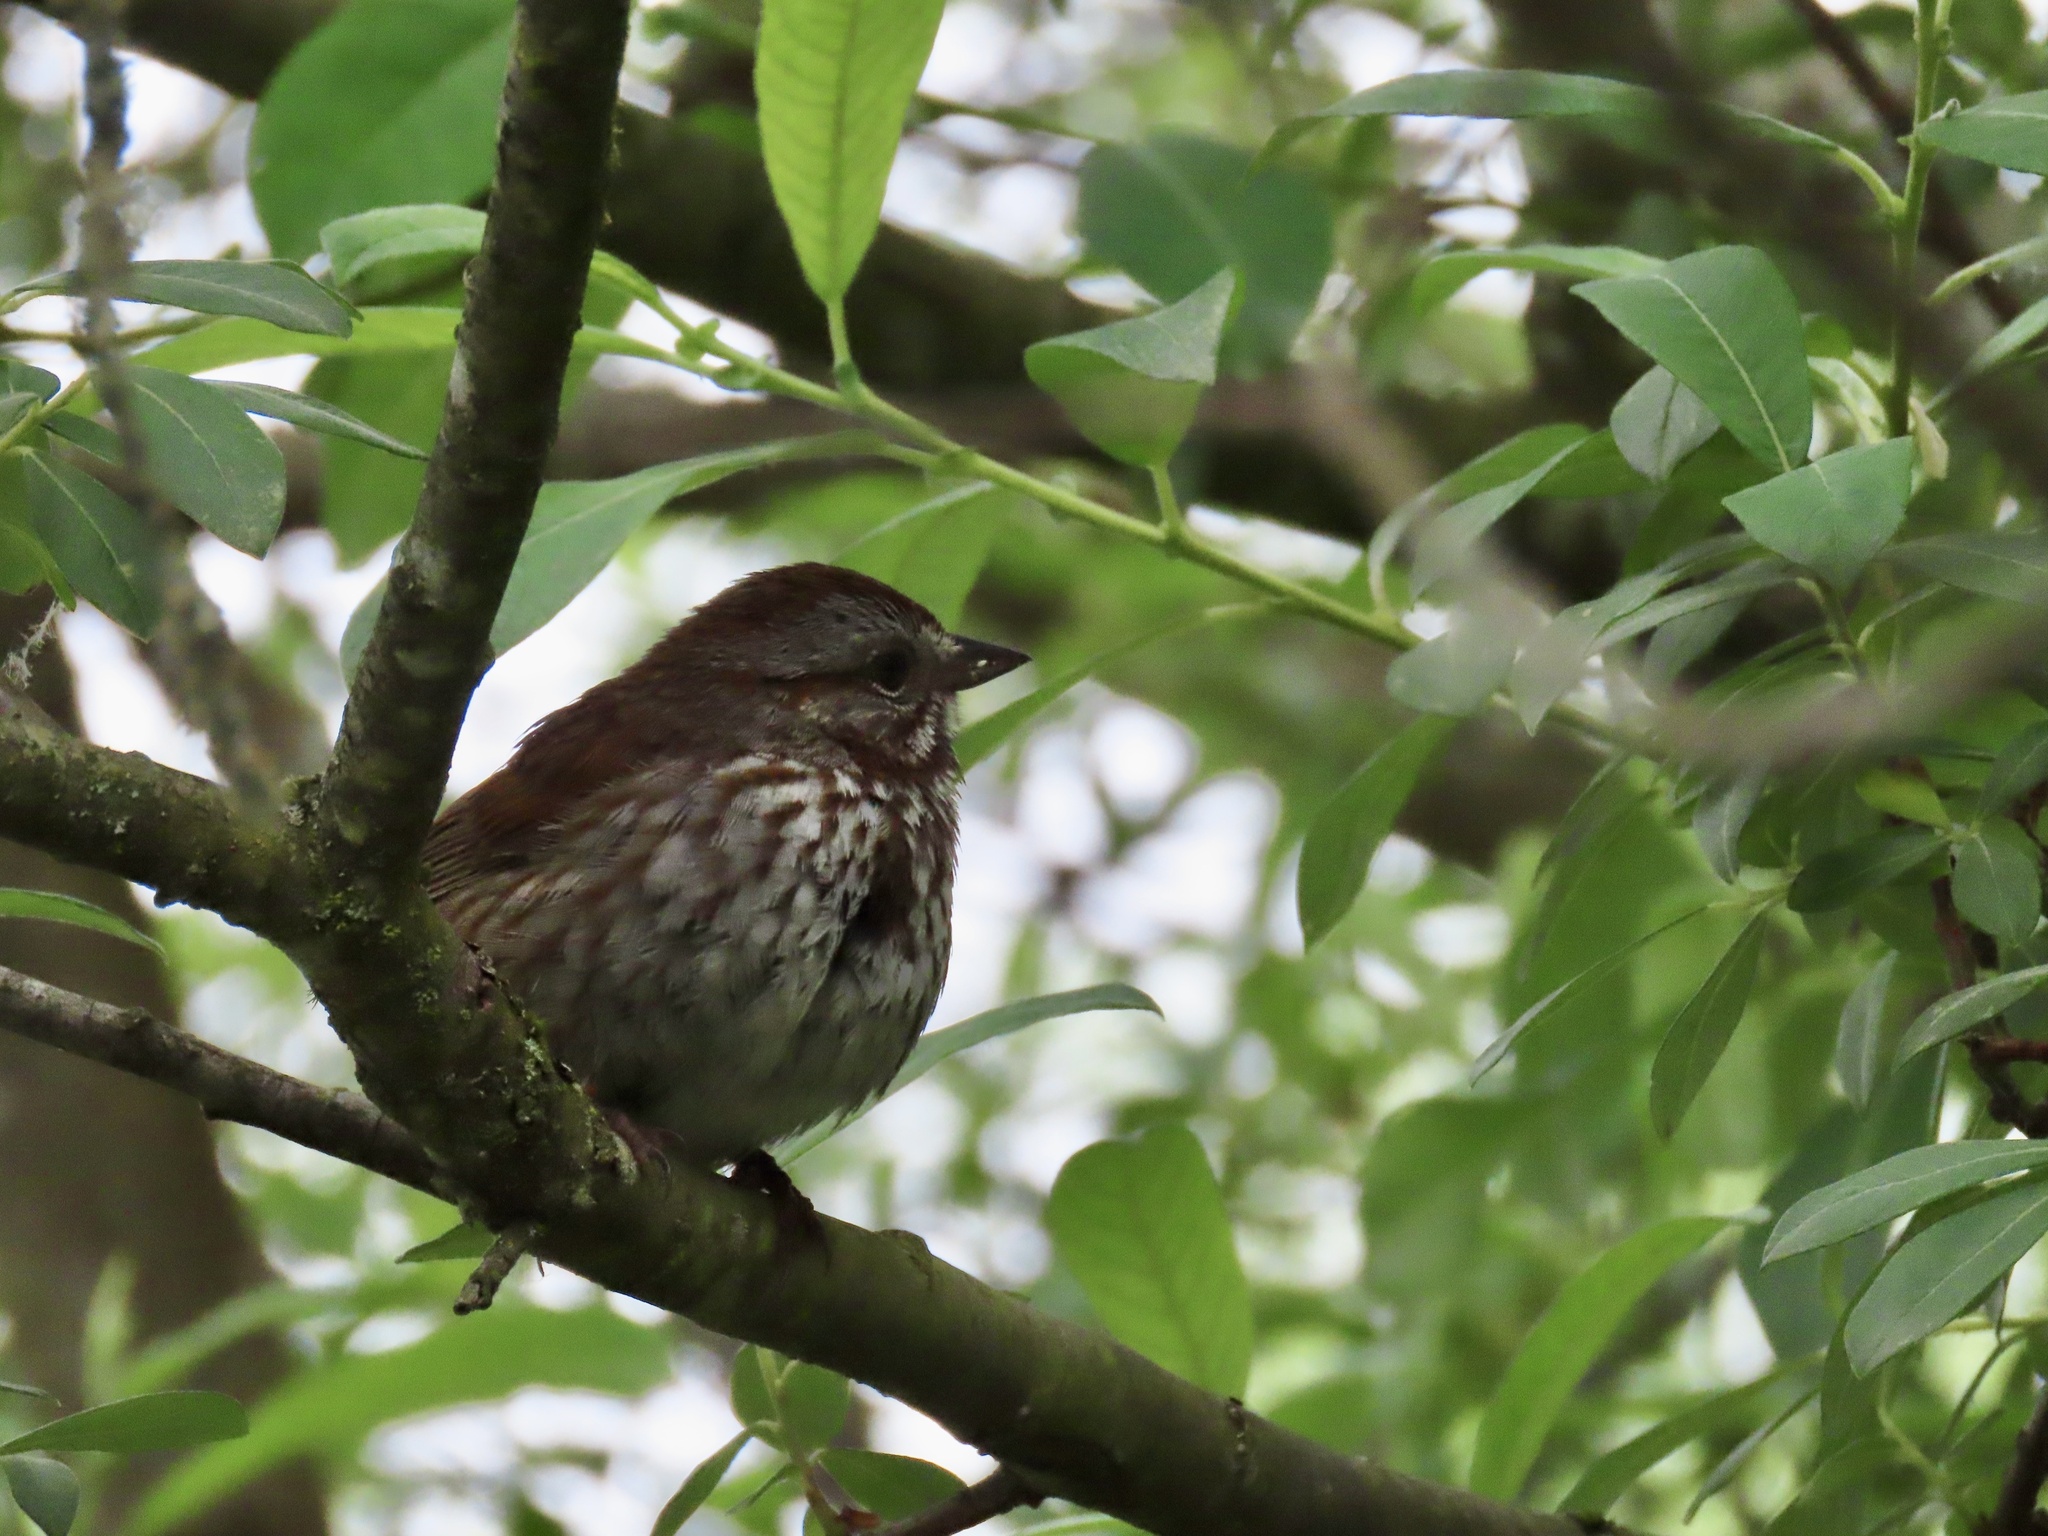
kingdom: Animalia
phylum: Chordata
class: Aves
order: Passeriformes
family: Passerellidae
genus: Melospiza
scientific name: Melospiza melodia
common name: Song sparrow
